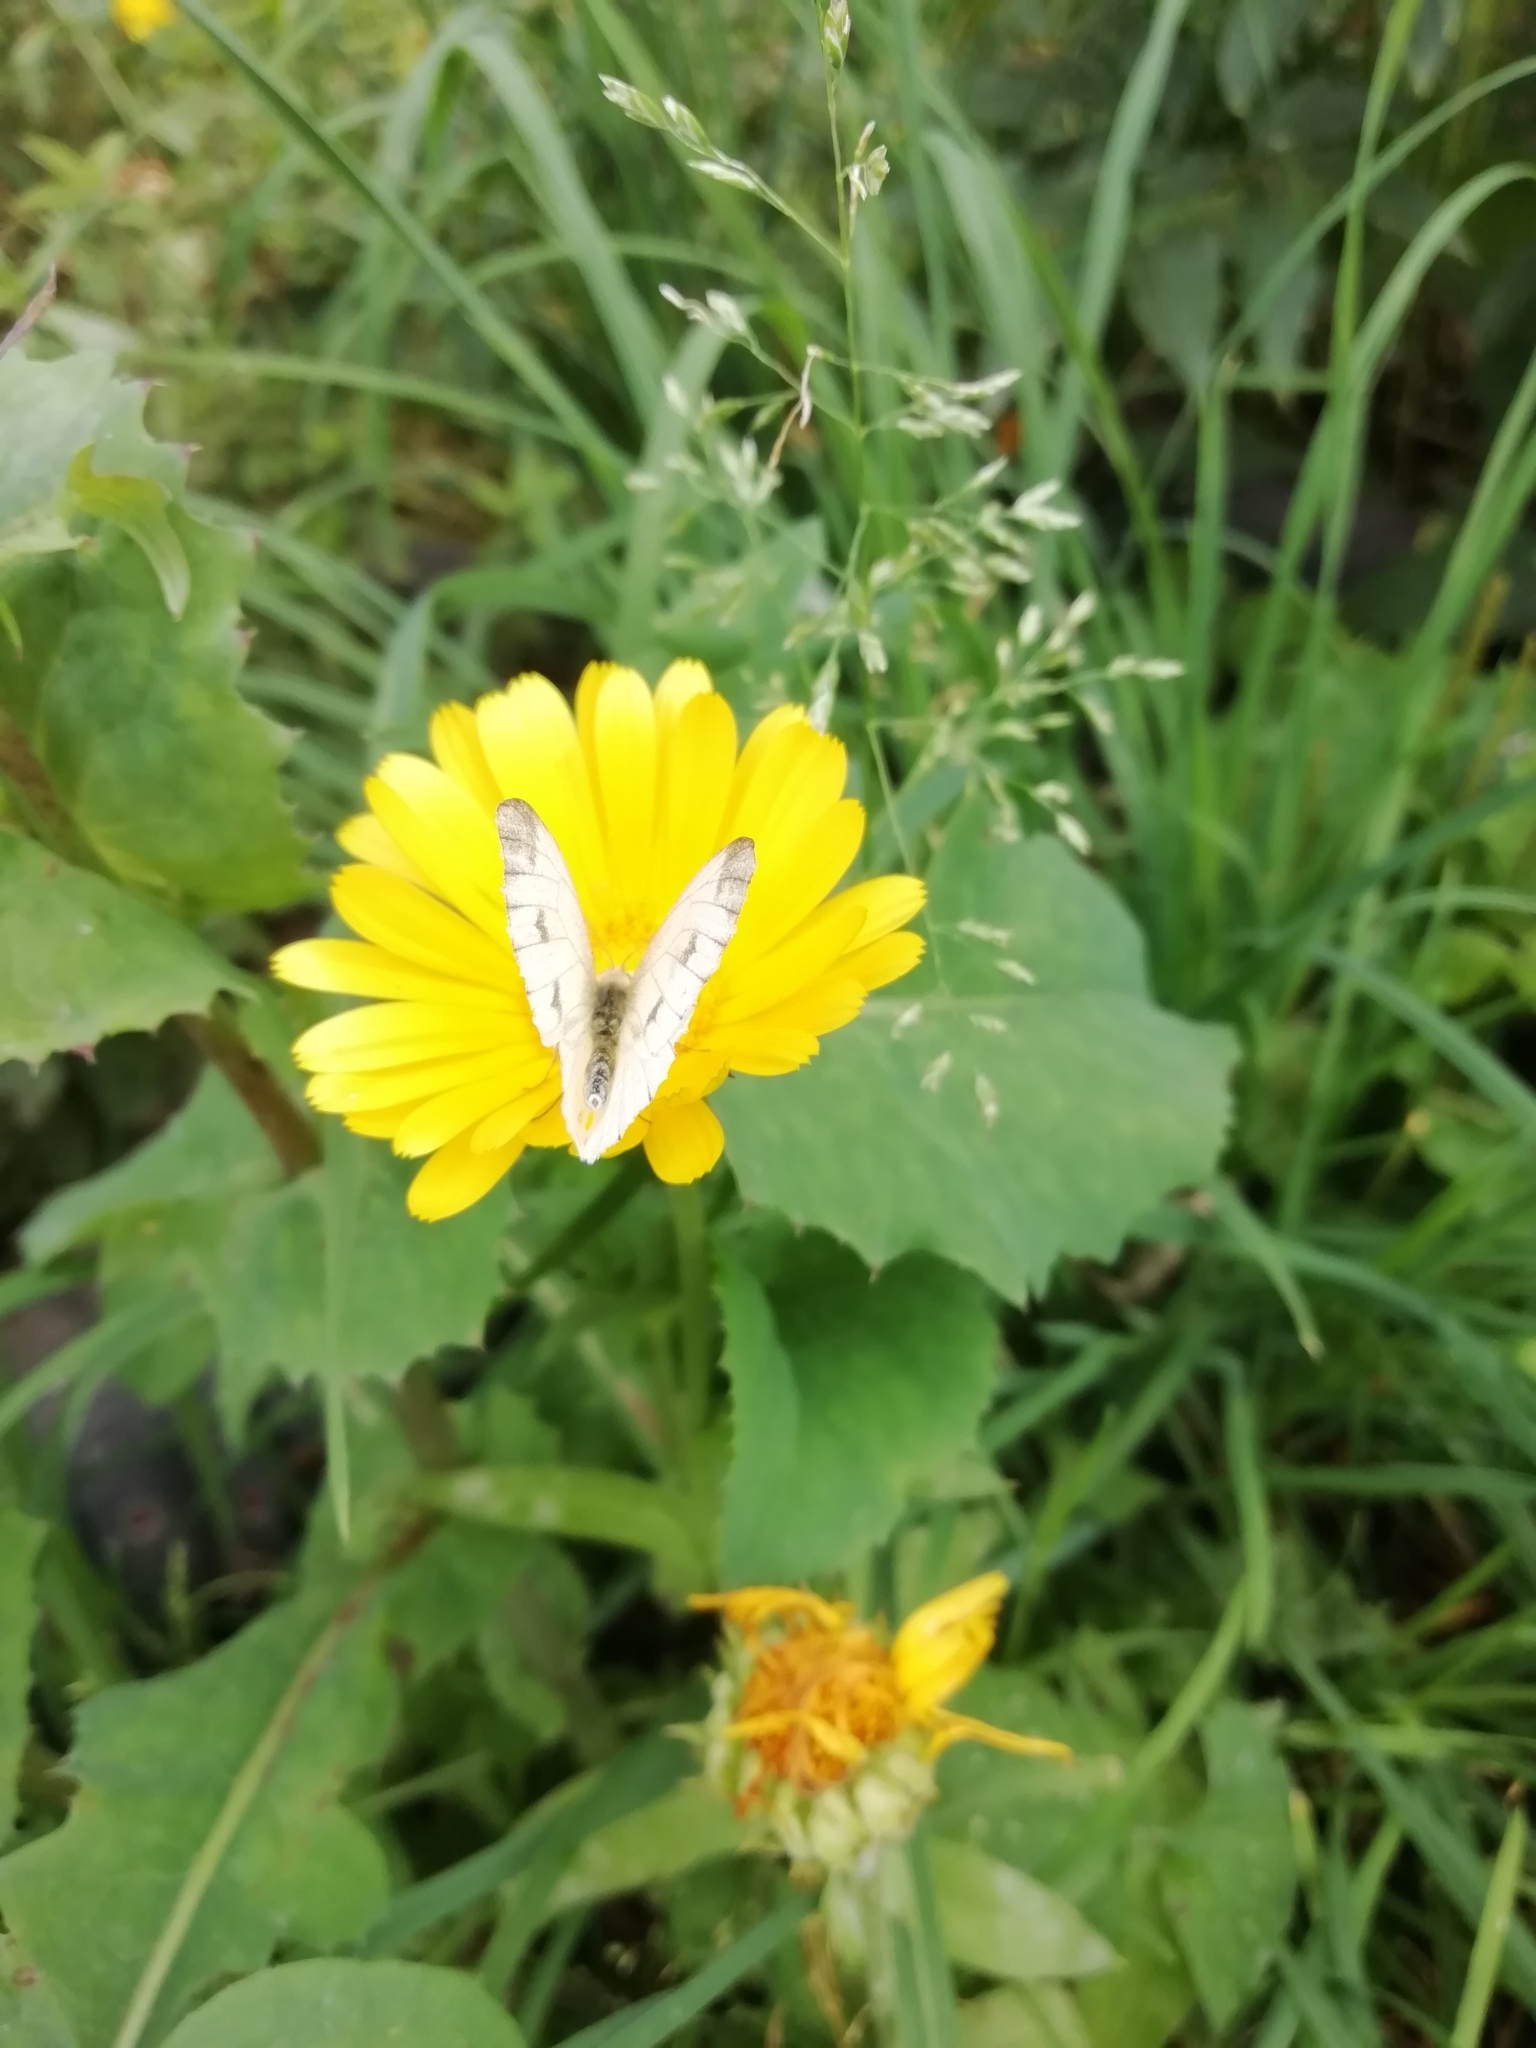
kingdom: Animalia
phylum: Arthropoda
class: Insecta
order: Lepidoptera
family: Pieridae
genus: Pieris
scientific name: Pieris napi
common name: Green-veined white
